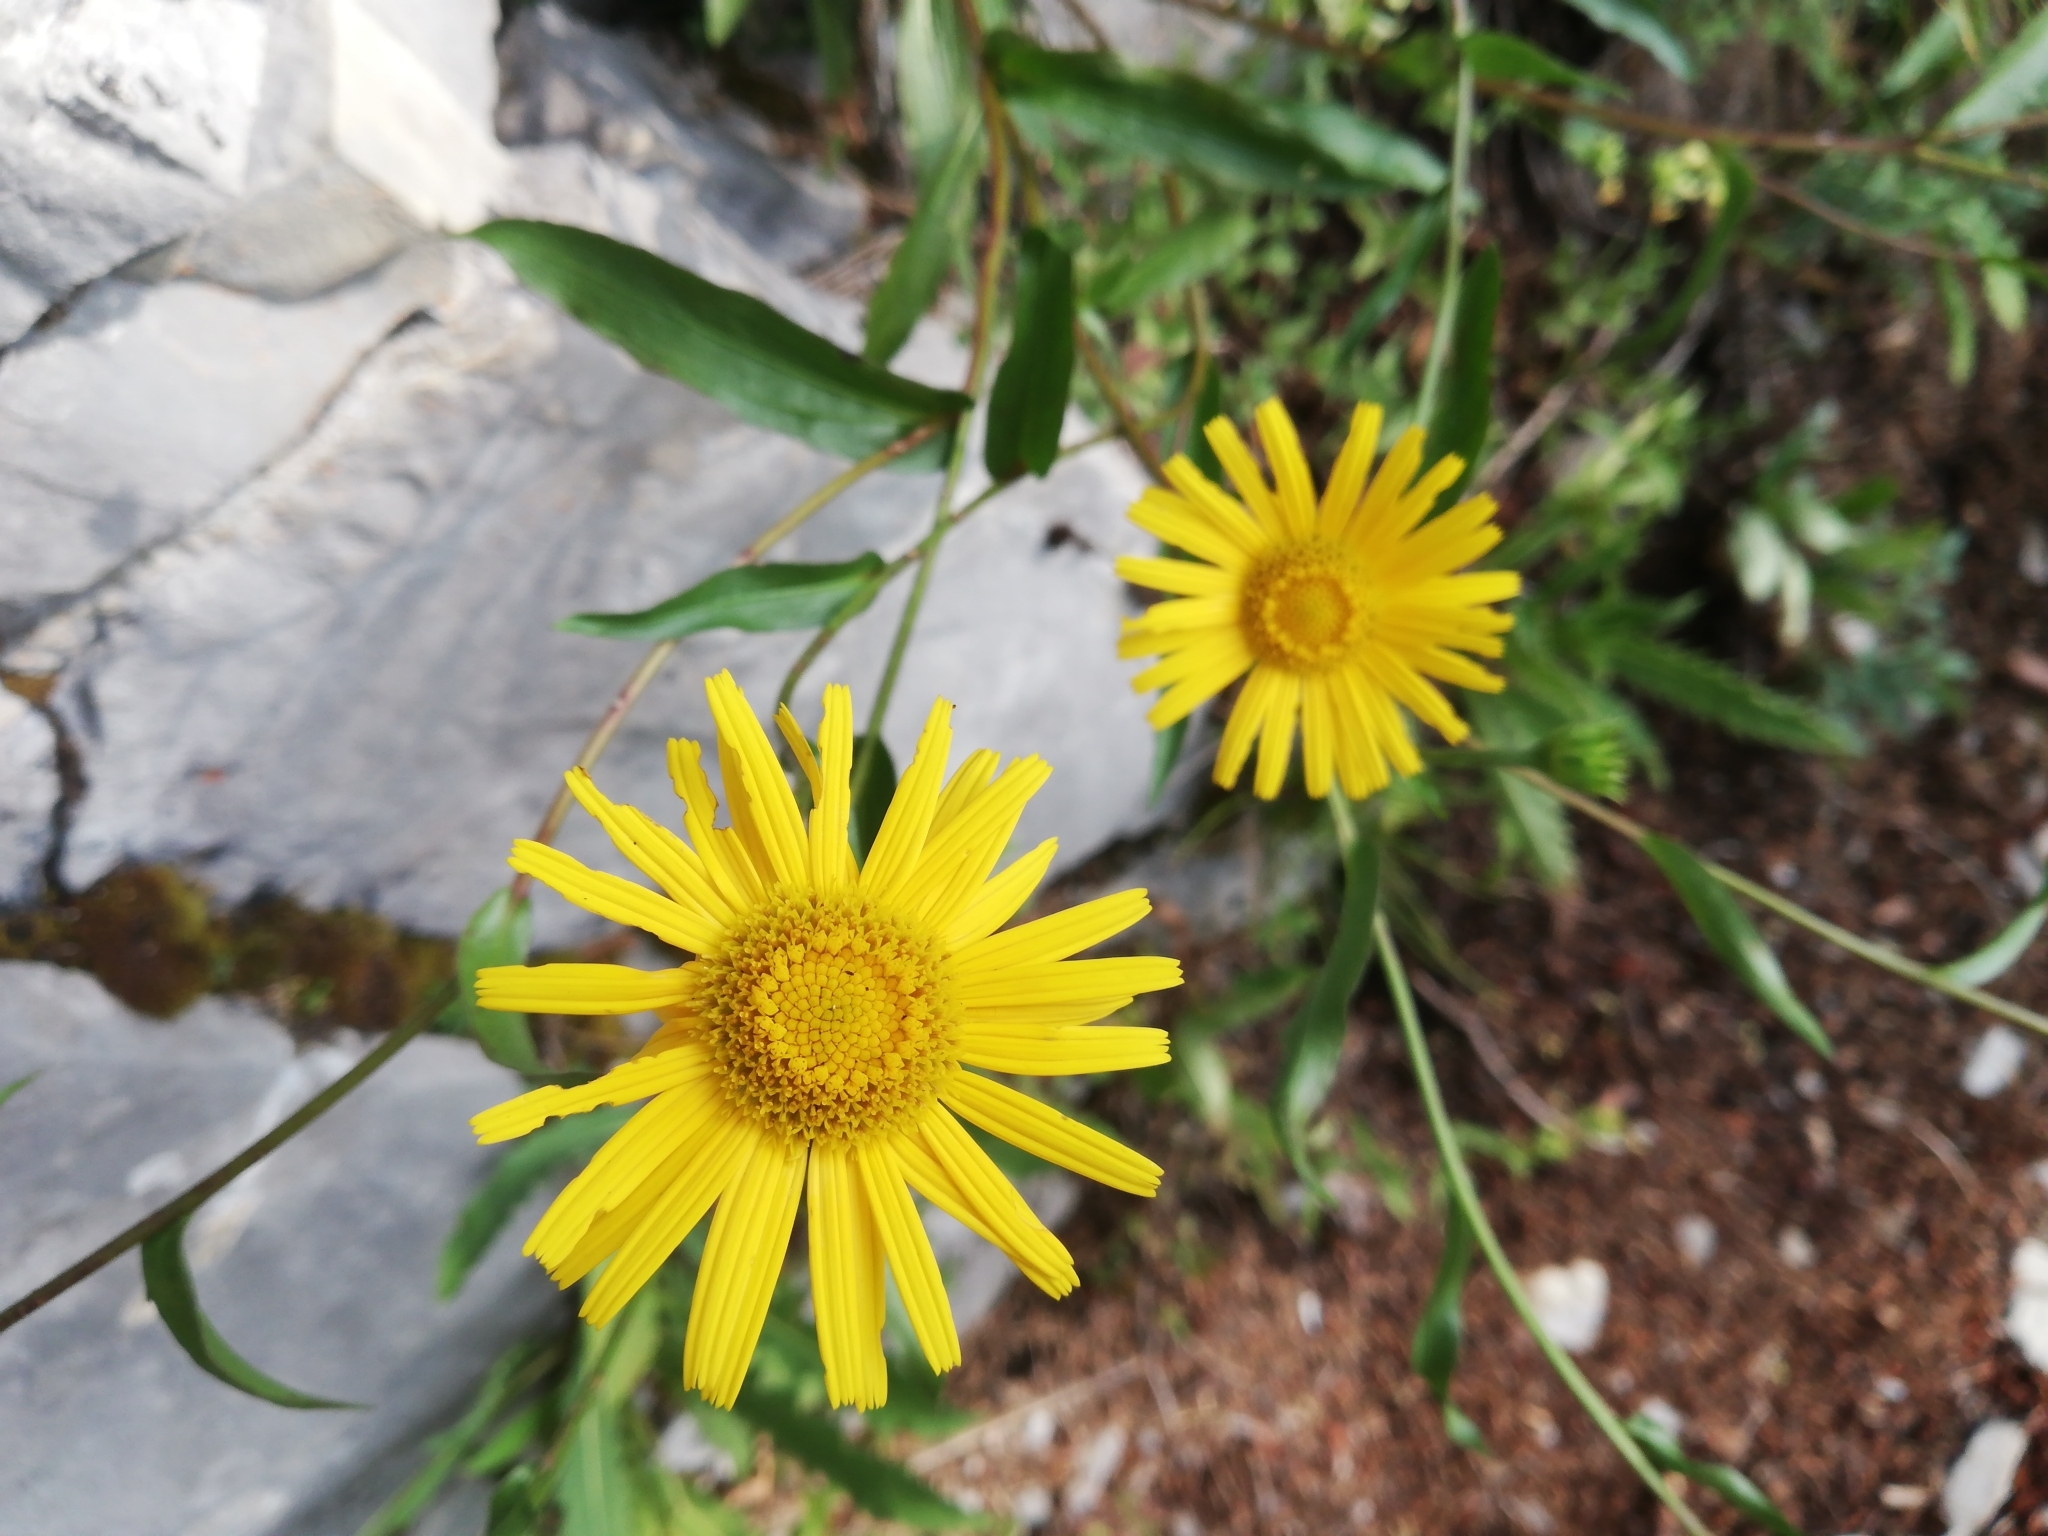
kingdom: Plantae
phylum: Tracheophyta
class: Magnoliopsida
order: Asterales
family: Asteraceae
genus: Buphthalmum
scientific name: Buphthalmum salicifolium
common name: Willow-leaved yellow-oxeye
